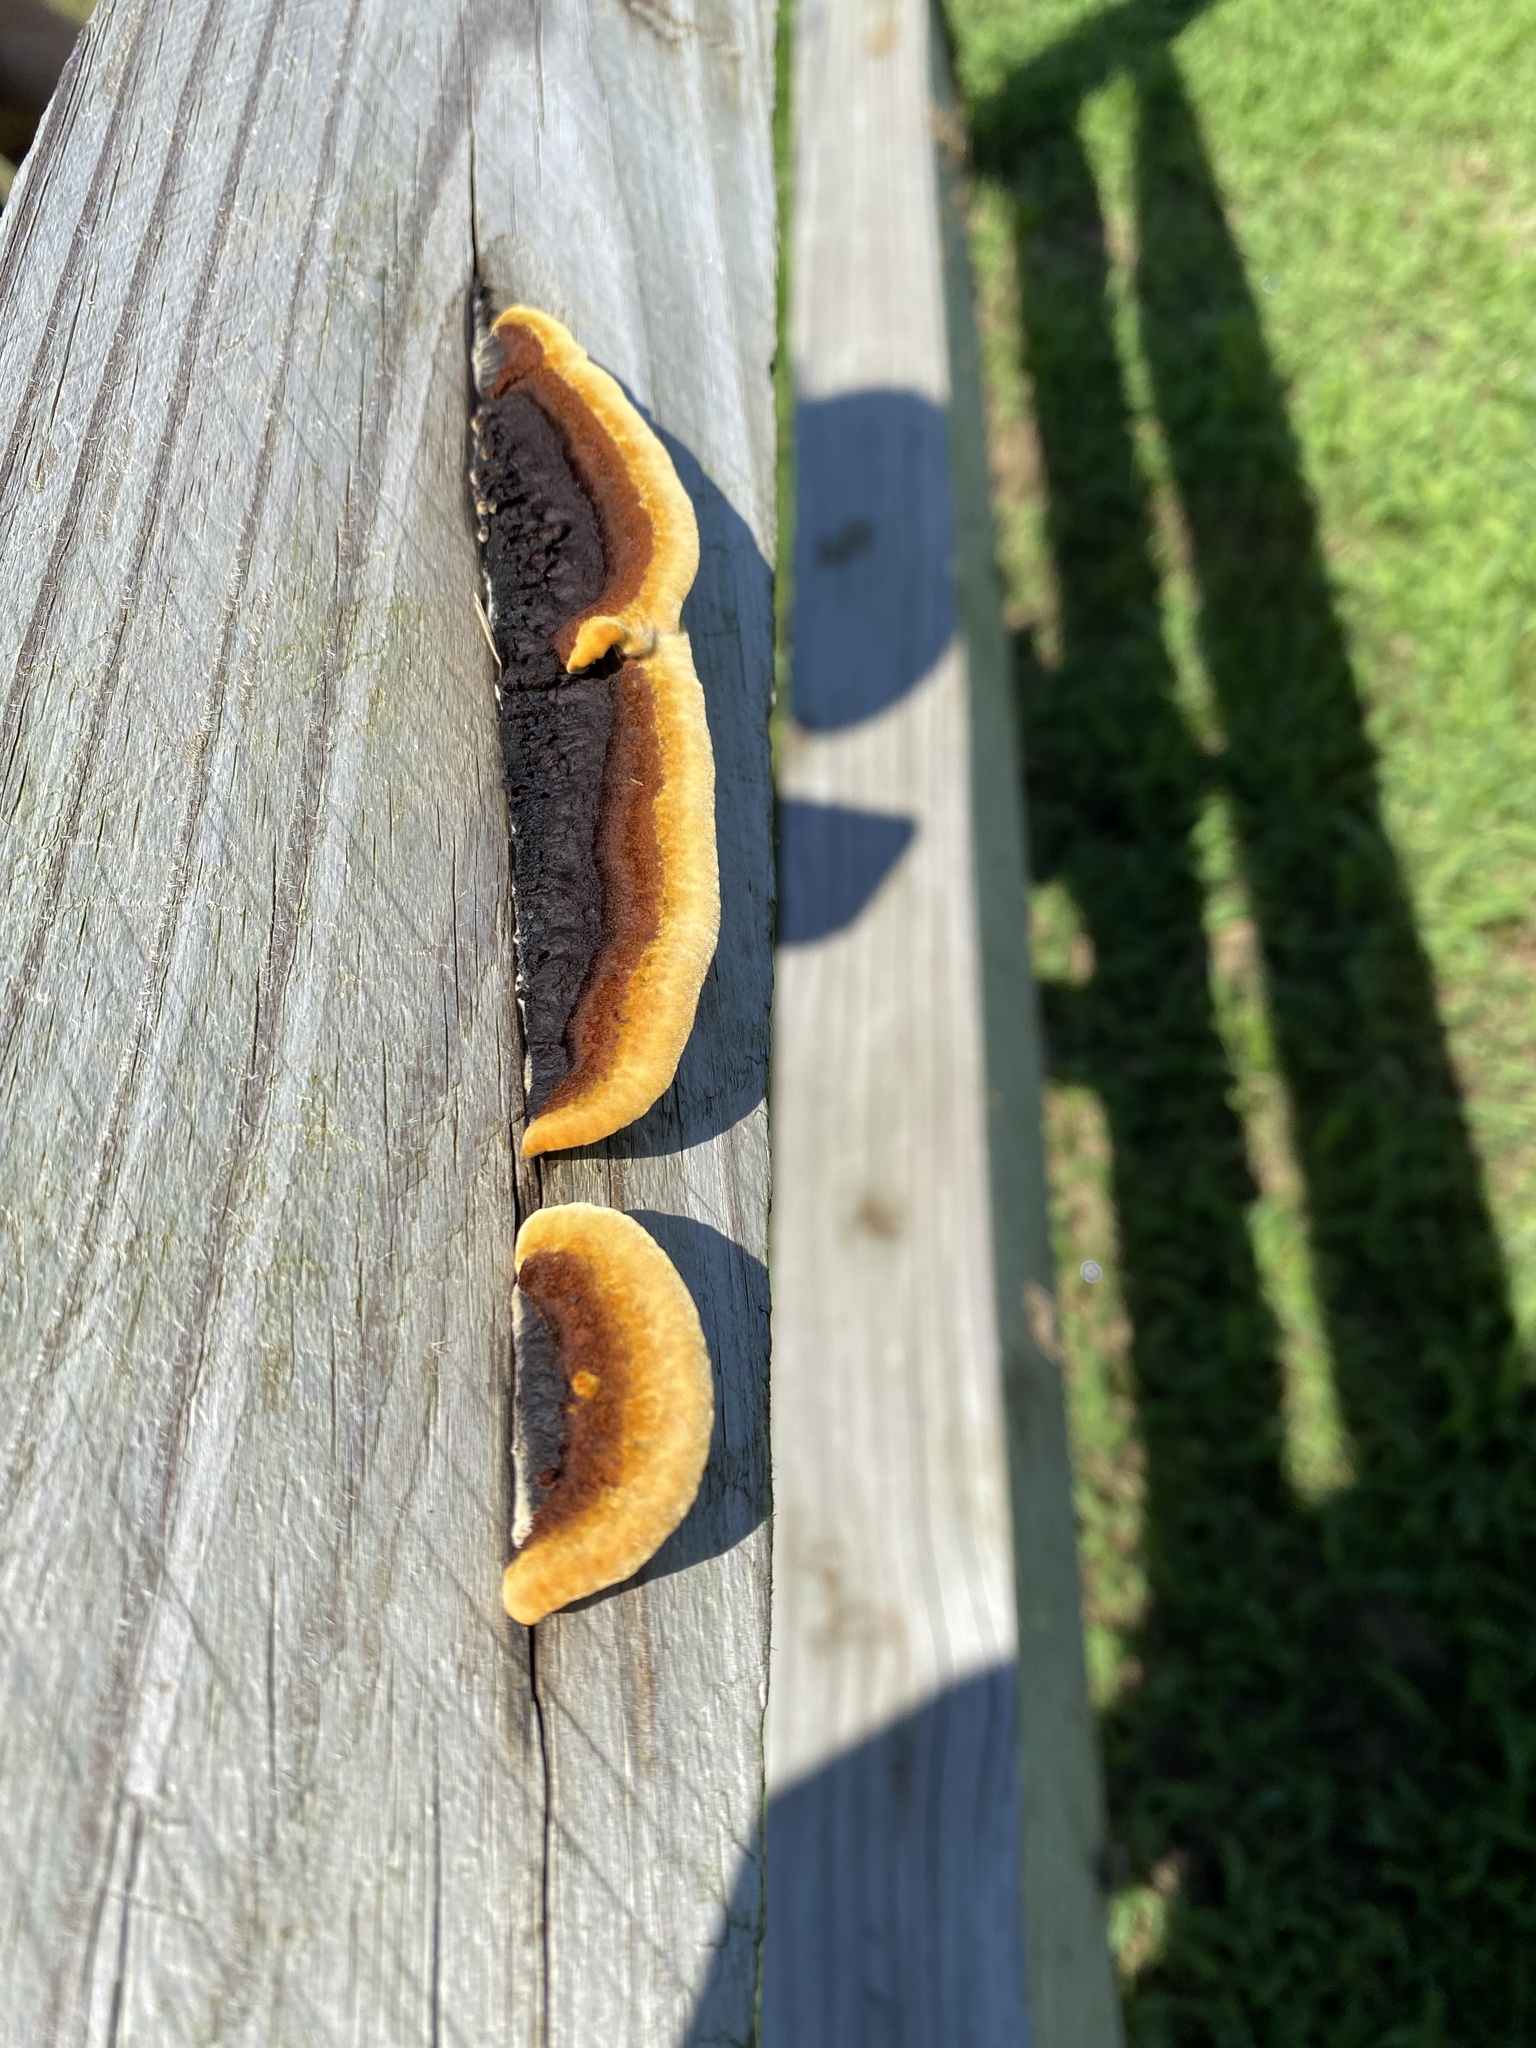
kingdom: Fungi
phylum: Basidiomycota
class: Agaricomycetes
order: Gloeophyllales
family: Gloeophyllaceae
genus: Gloeophyllum
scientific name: Gloeophyllum sepiarium
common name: Conifer mazegill
